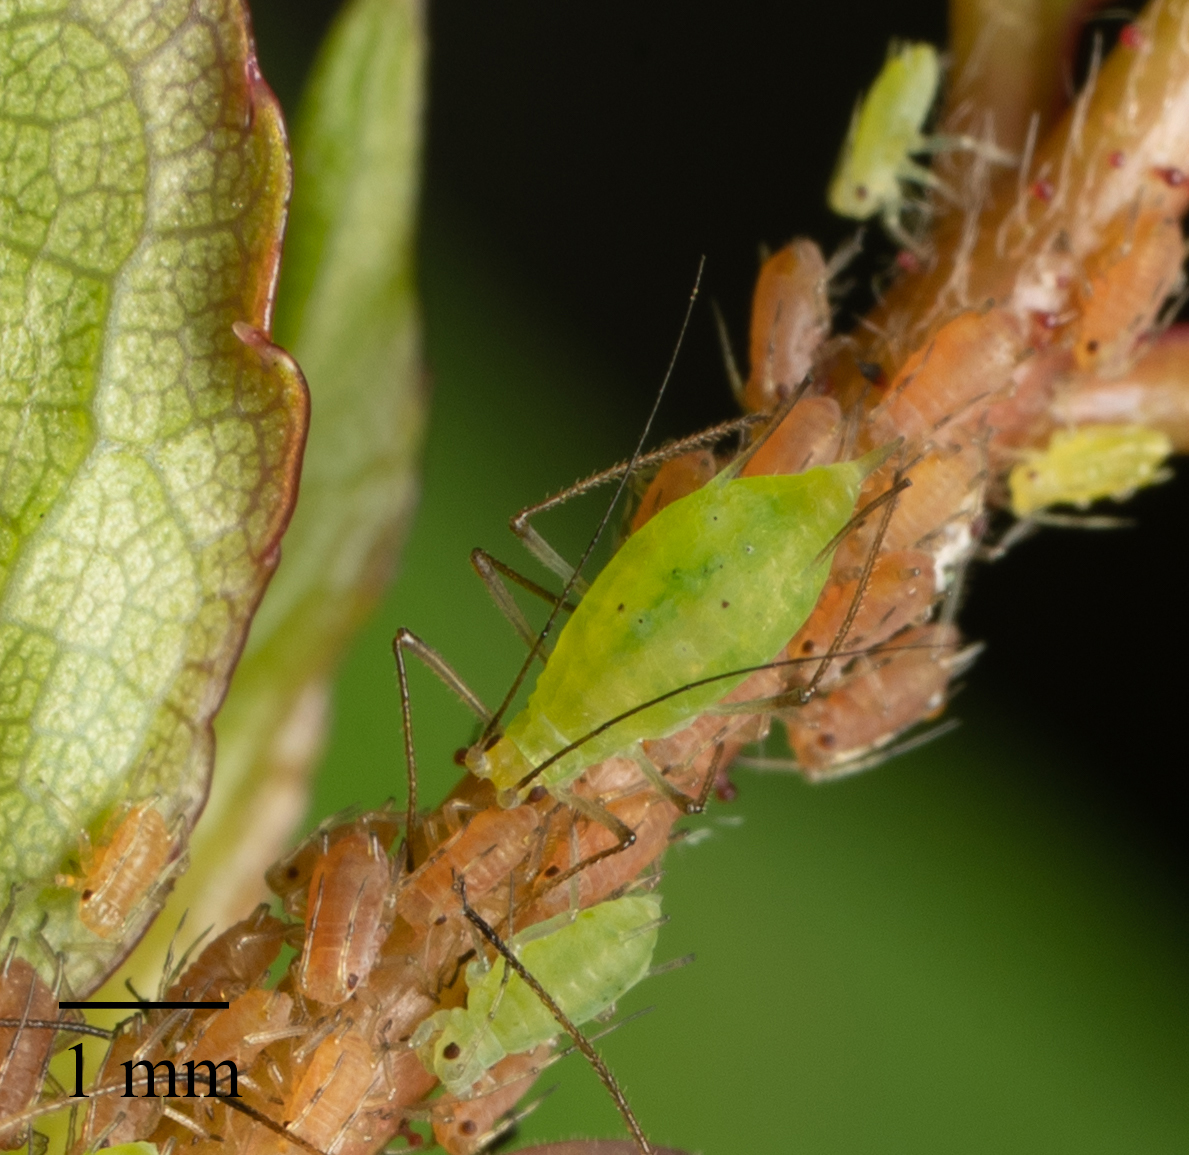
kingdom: Animalia
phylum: Arthropoda
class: Insecta
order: Hemiptera
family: Aphididae
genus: Macrosiphum
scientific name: Macrosiphum euphorbiae
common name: Potato aphid
